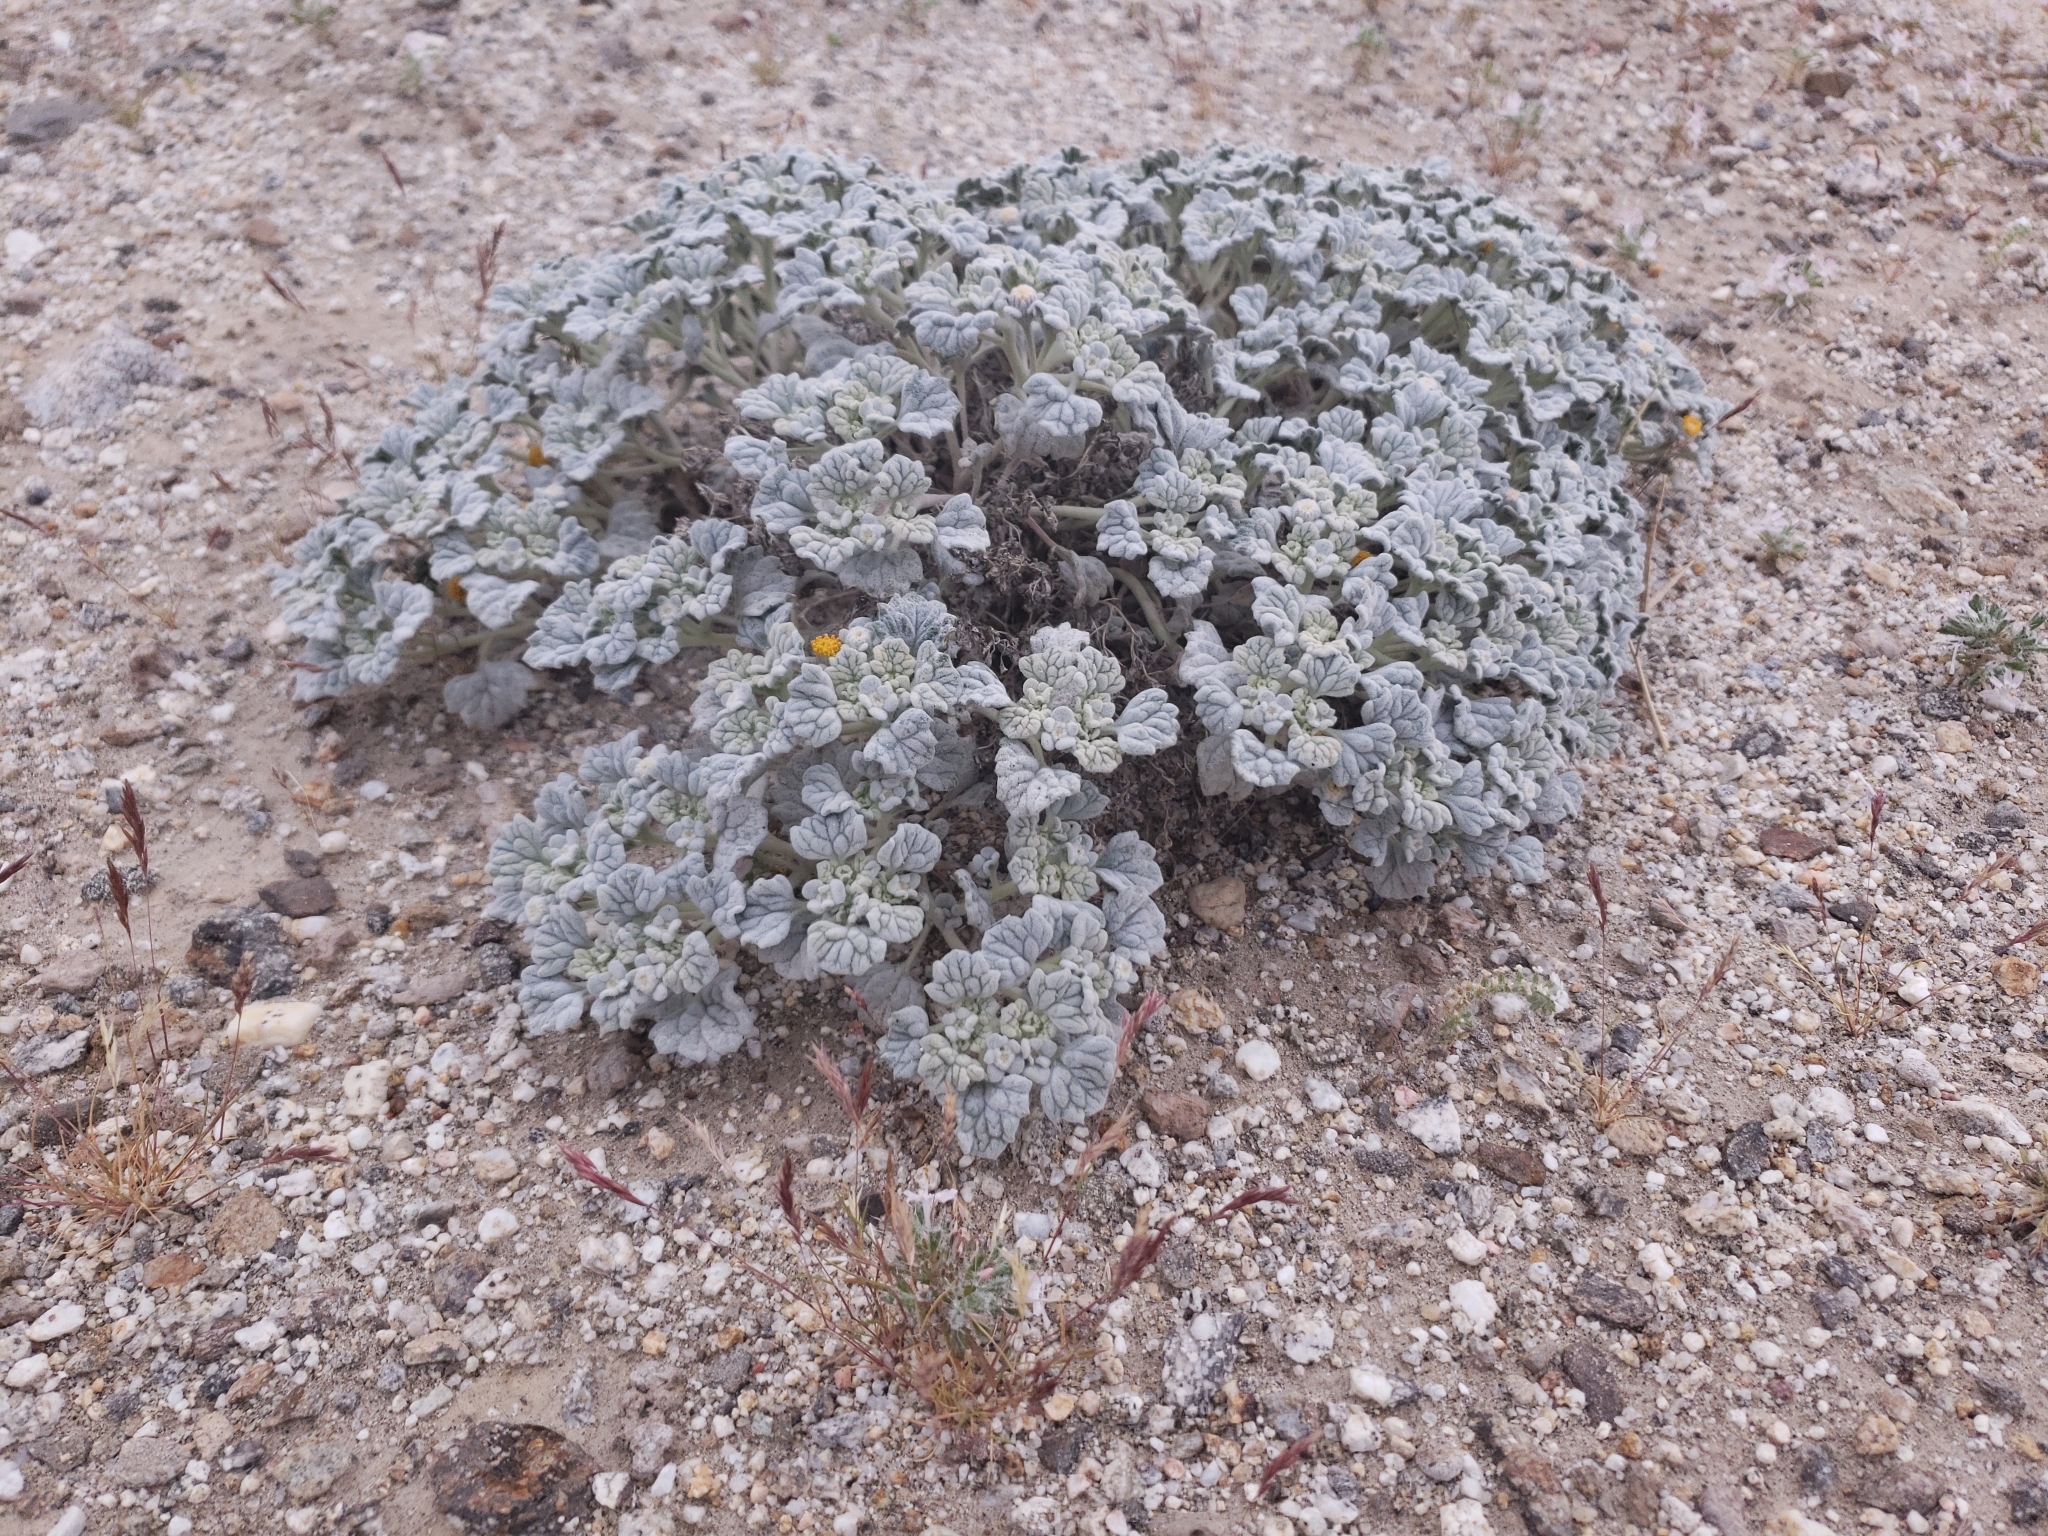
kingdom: Plantae
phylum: Tracheophyta
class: Magnoliopsida
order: Asterales
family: Asteraceae
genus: Psathyrotes
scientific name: Psathyrotes ramosissima
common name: Turtleback
